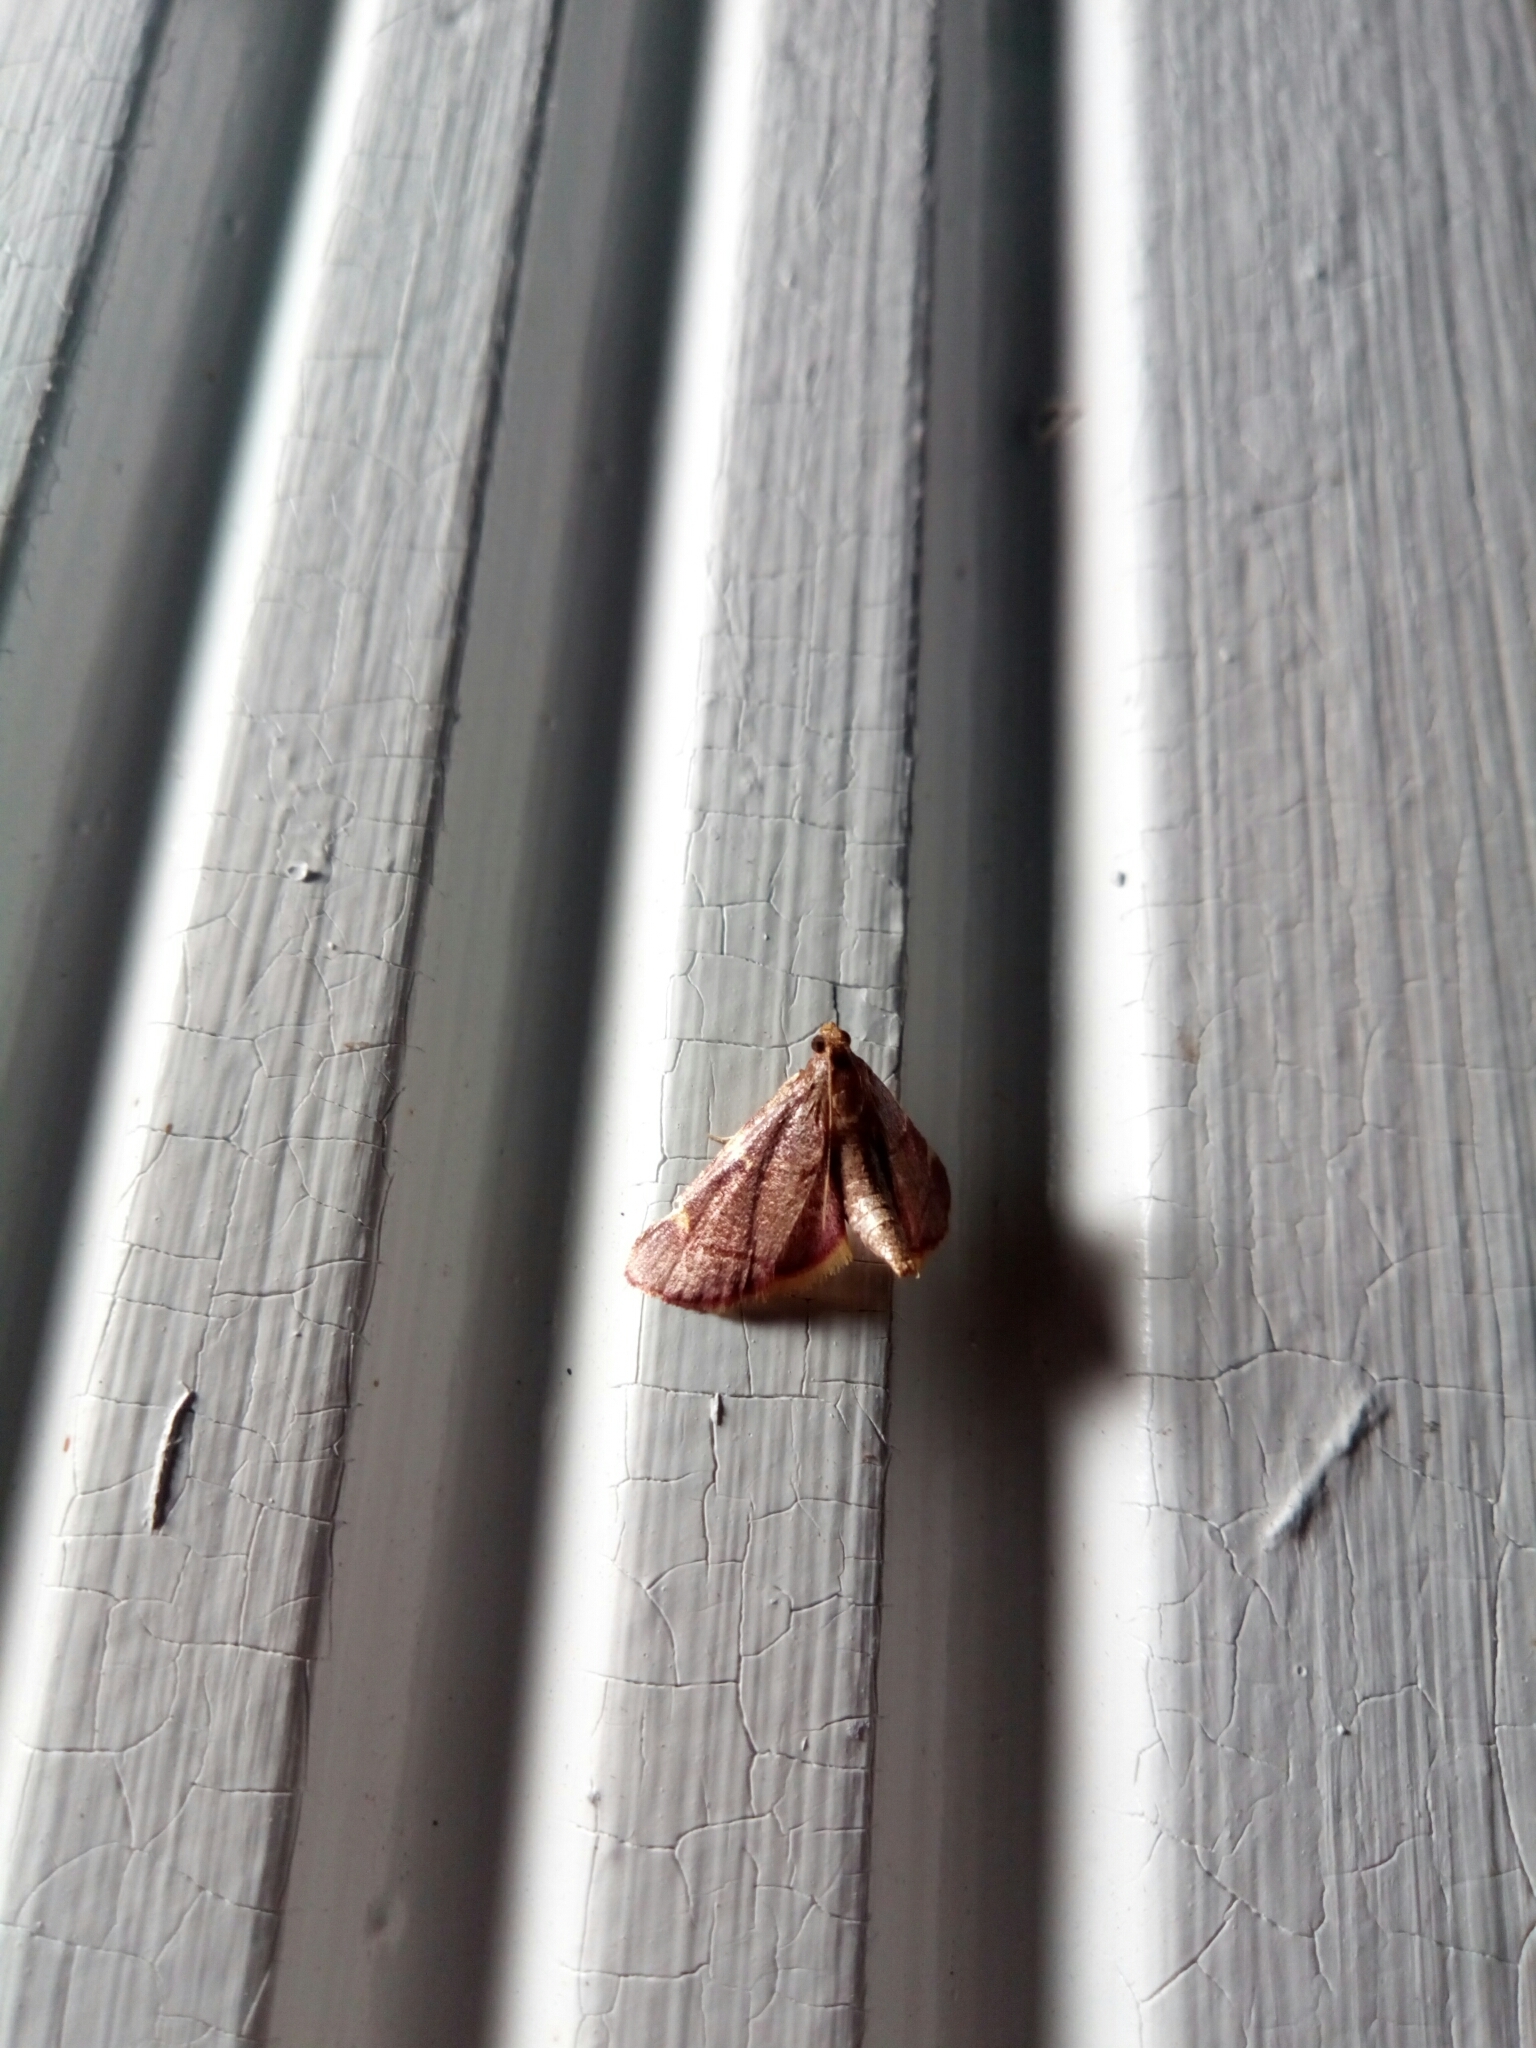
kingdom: Animalia
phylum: Arthropoda
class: Insecta
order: Lepidoptera
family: Pyralidae
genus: Hypsopygia
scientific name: Hypsopygia olinalis
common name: Yellow-fringed dolichomia moth
